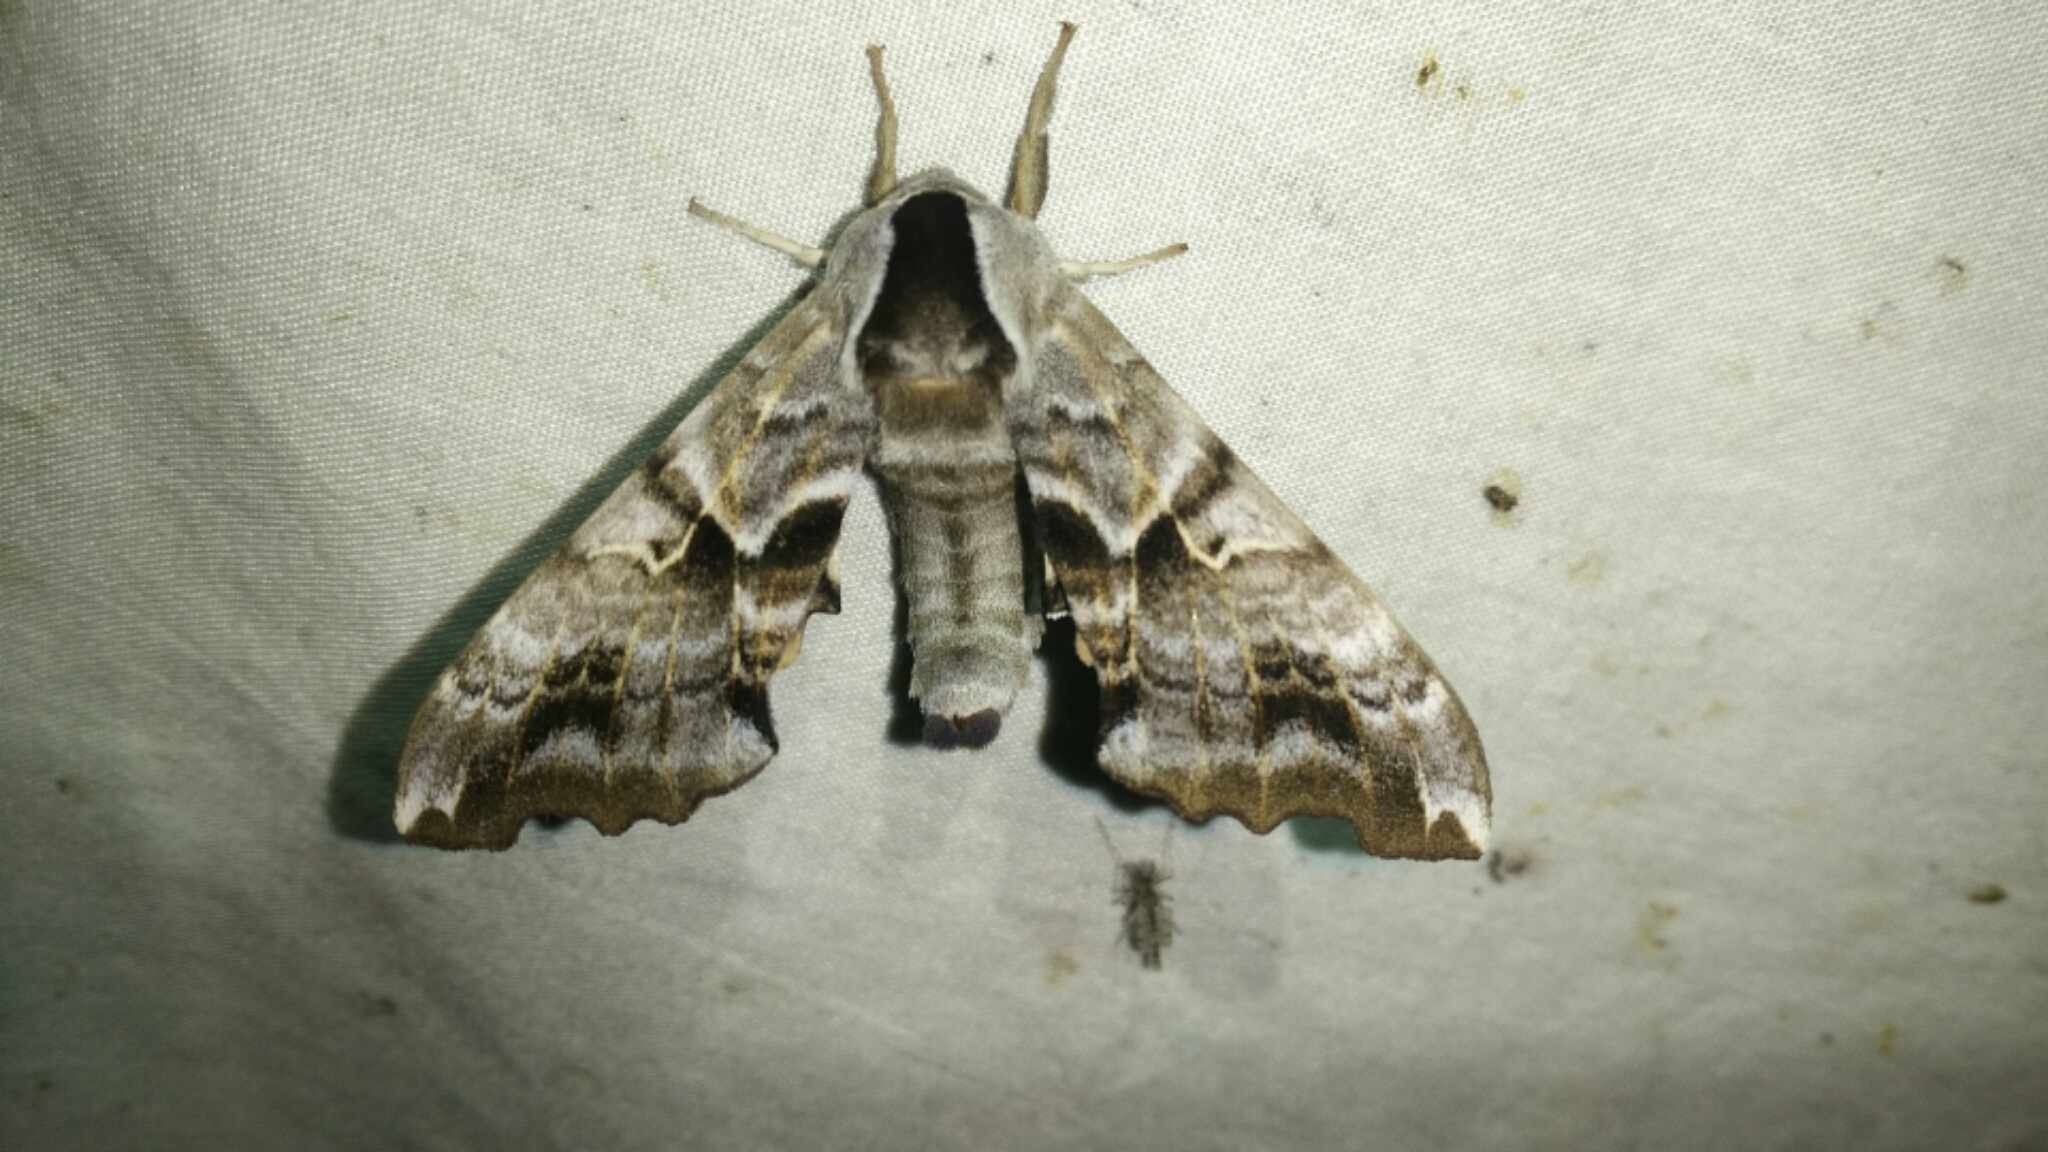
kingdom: Animalia
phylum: Arthropoda
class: Insecta
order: Lepidoptera
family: Sphingidae
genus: Smerinthus
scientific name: Smerinthus cerisyi
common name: Cerisy's sphinx moth
